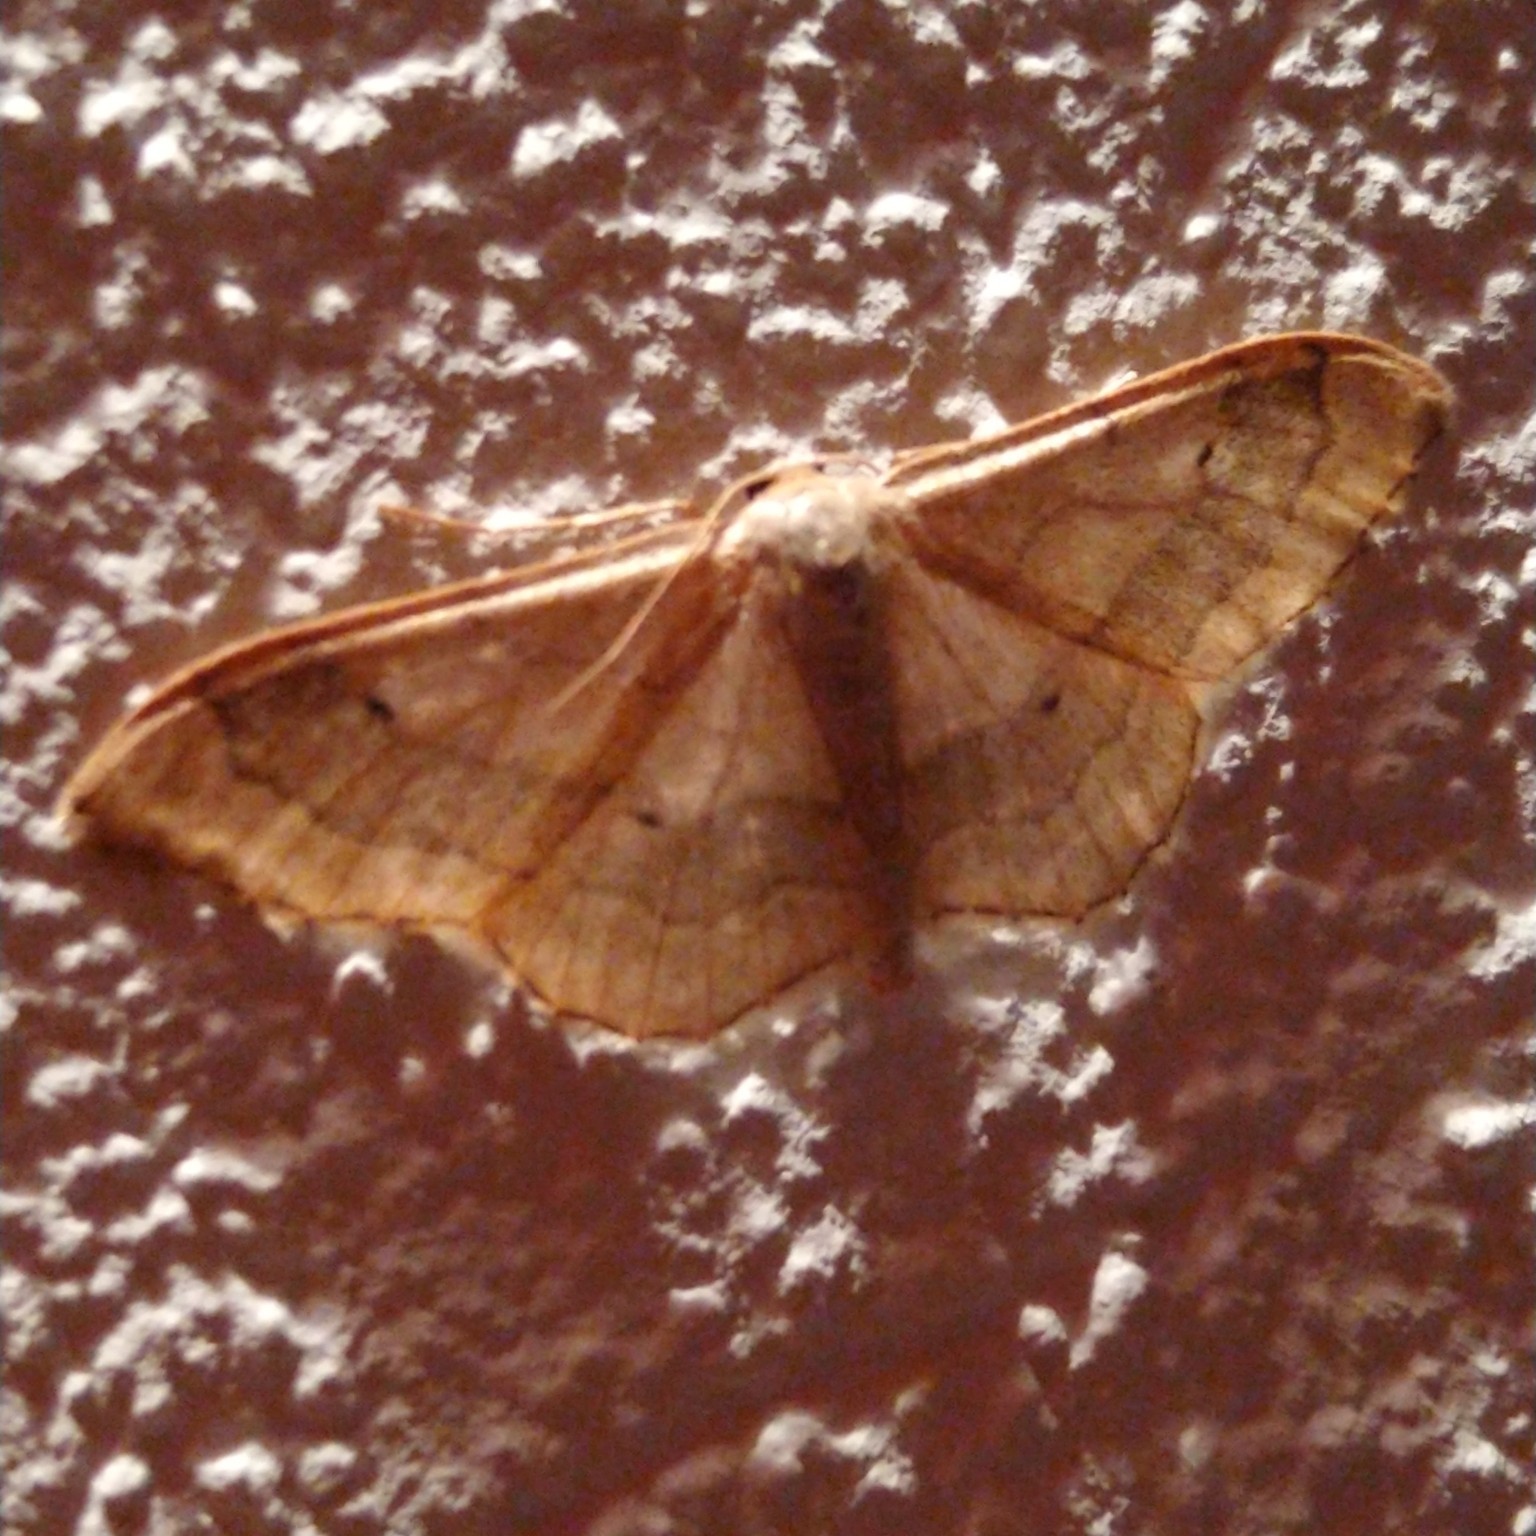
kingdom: Animalia
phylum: Arthropoda
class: Insecta
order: Lepidoptera
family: Geometridae
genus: Idaea
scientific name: Idaea aversata
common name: Riband wave
